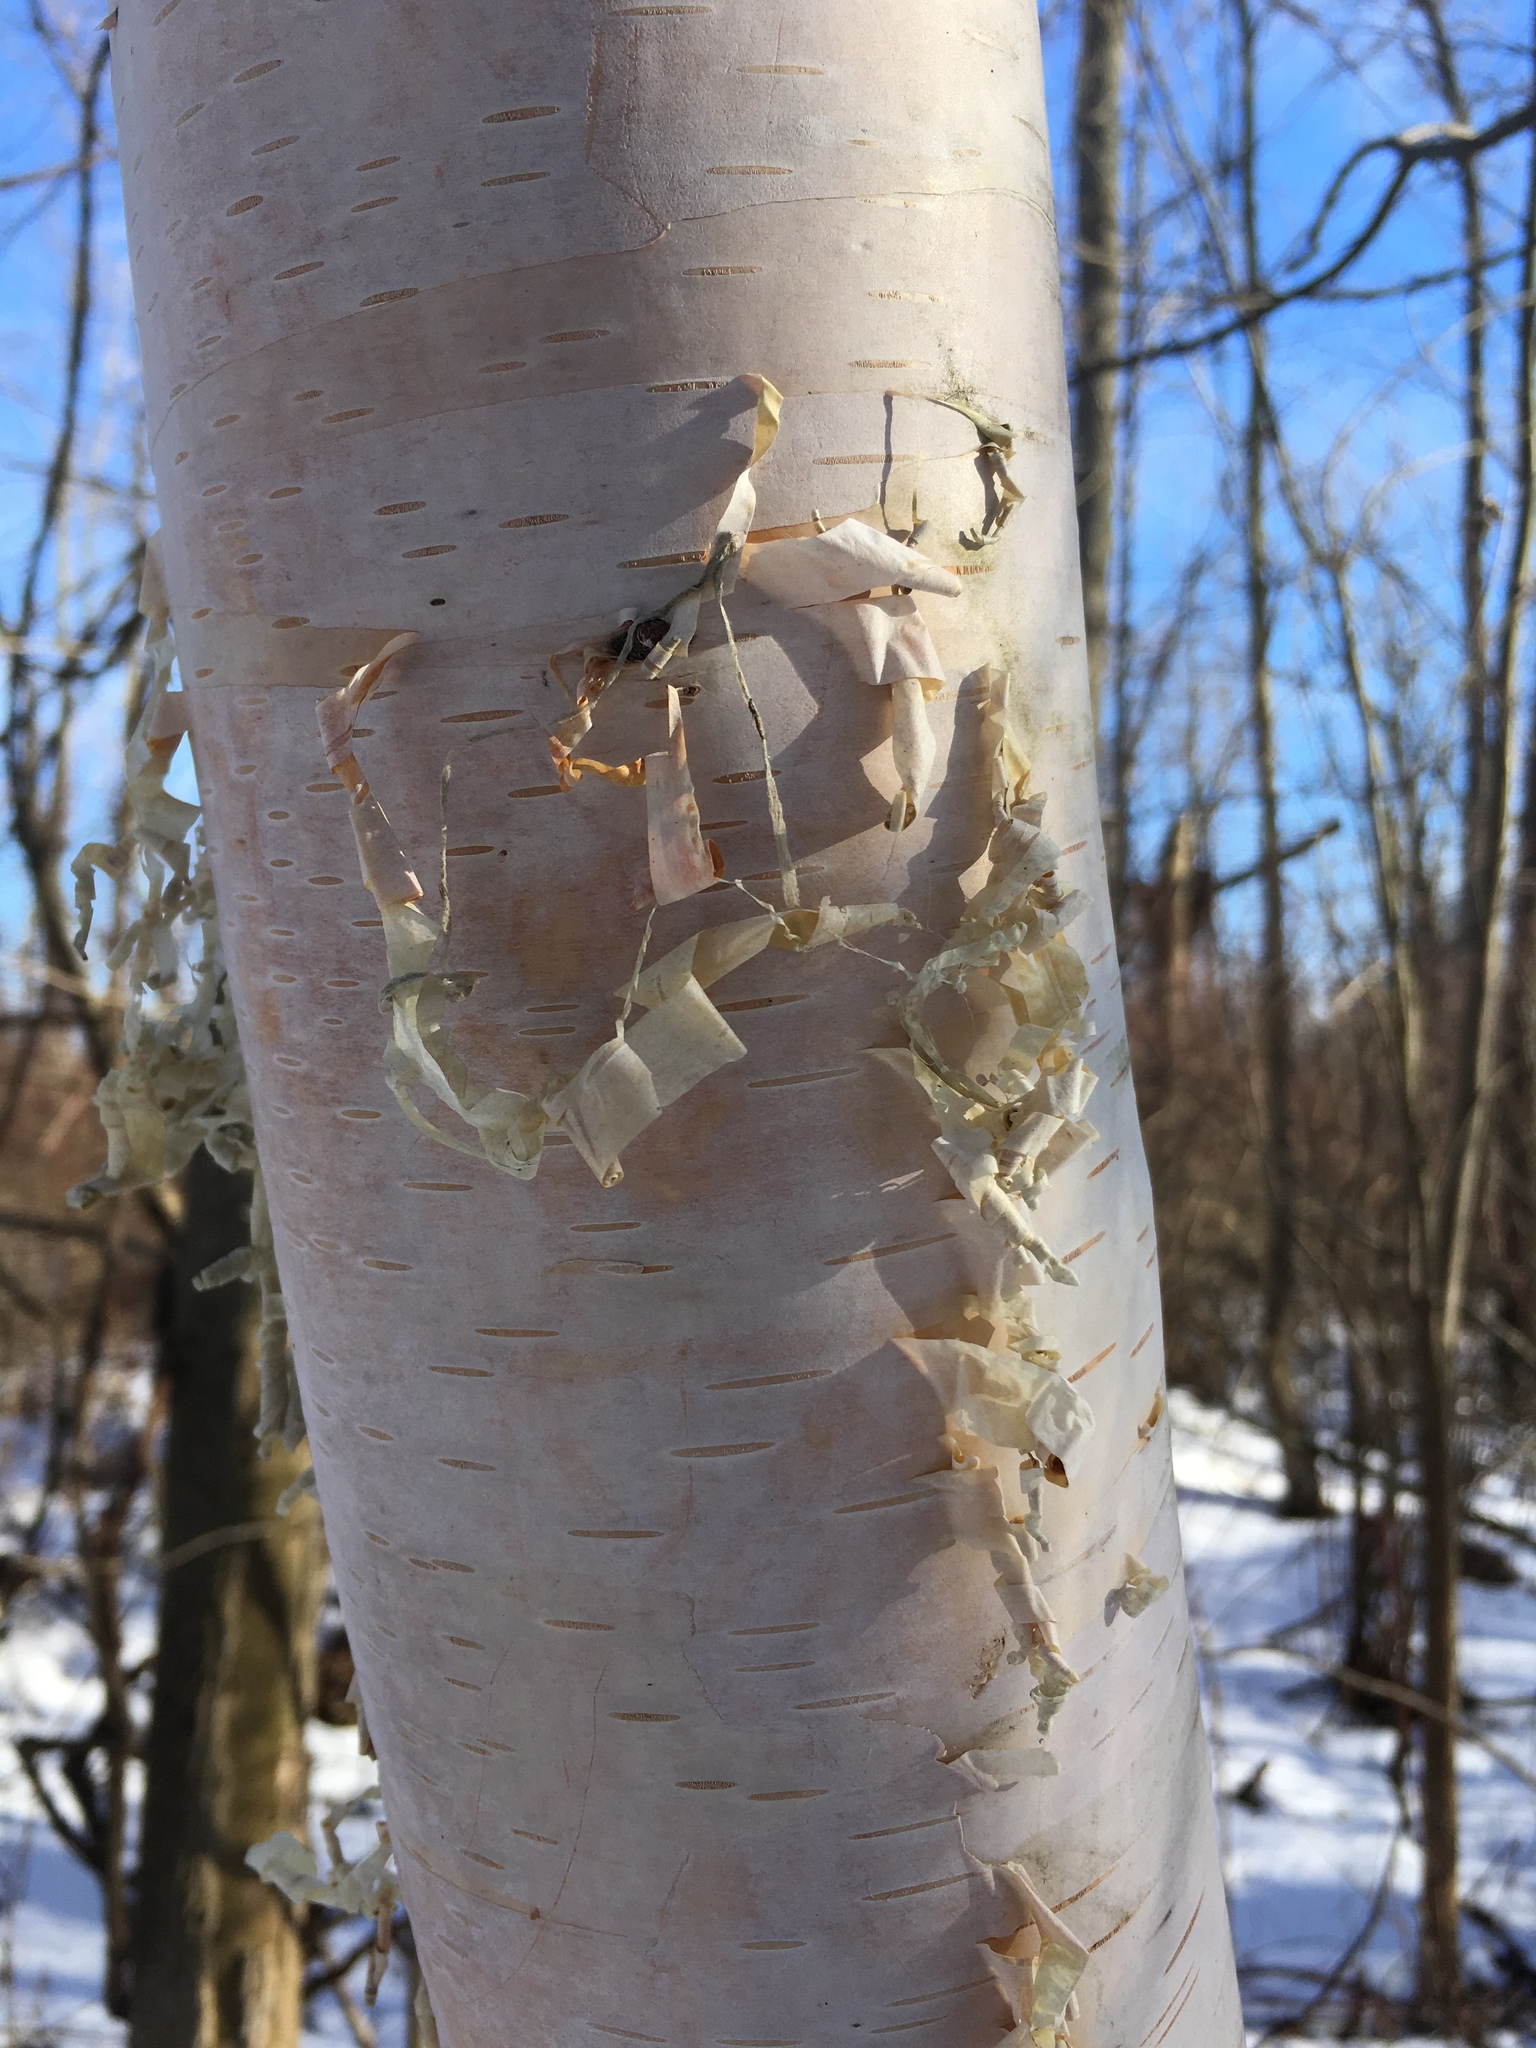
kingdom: Plantae
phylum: Tracheophyta
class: Magnoliopsida
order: Fagales
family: Betulaceae
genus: Betula
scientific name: Betula papyrifera
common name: Paper birch
